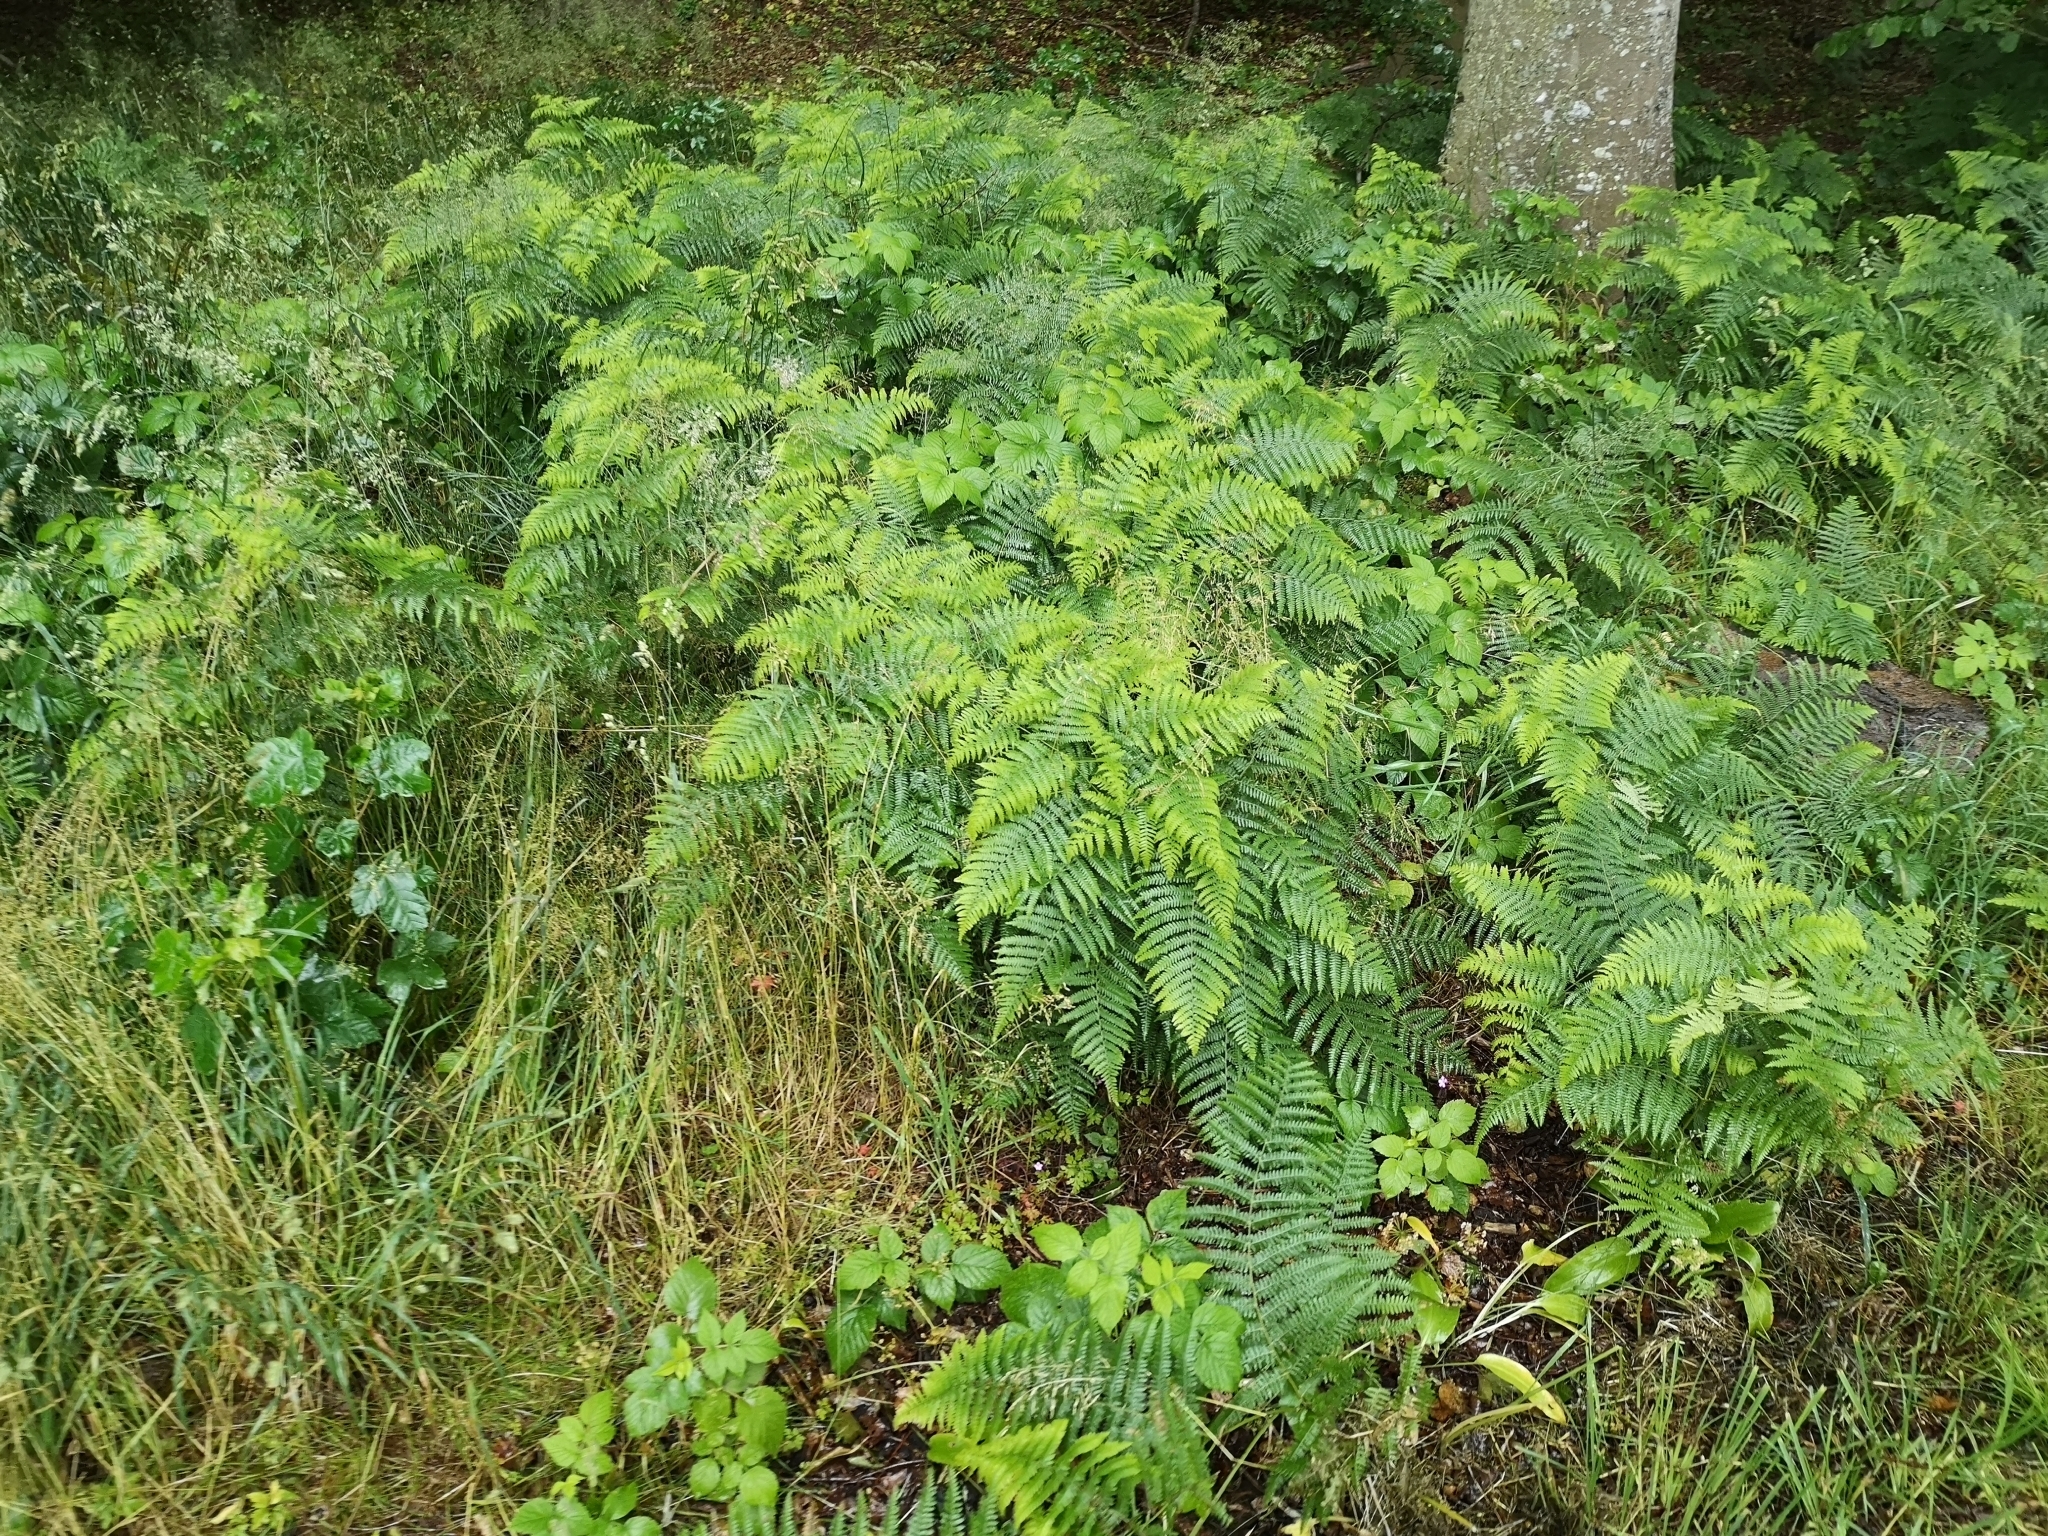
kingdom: Plantae
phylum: Tracheophyta
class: Polypodiopsida
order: Polypodiales
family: Dennstaedtiaceae
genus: Pteridium
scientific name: Pteridium aquilinum
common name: Bracken
